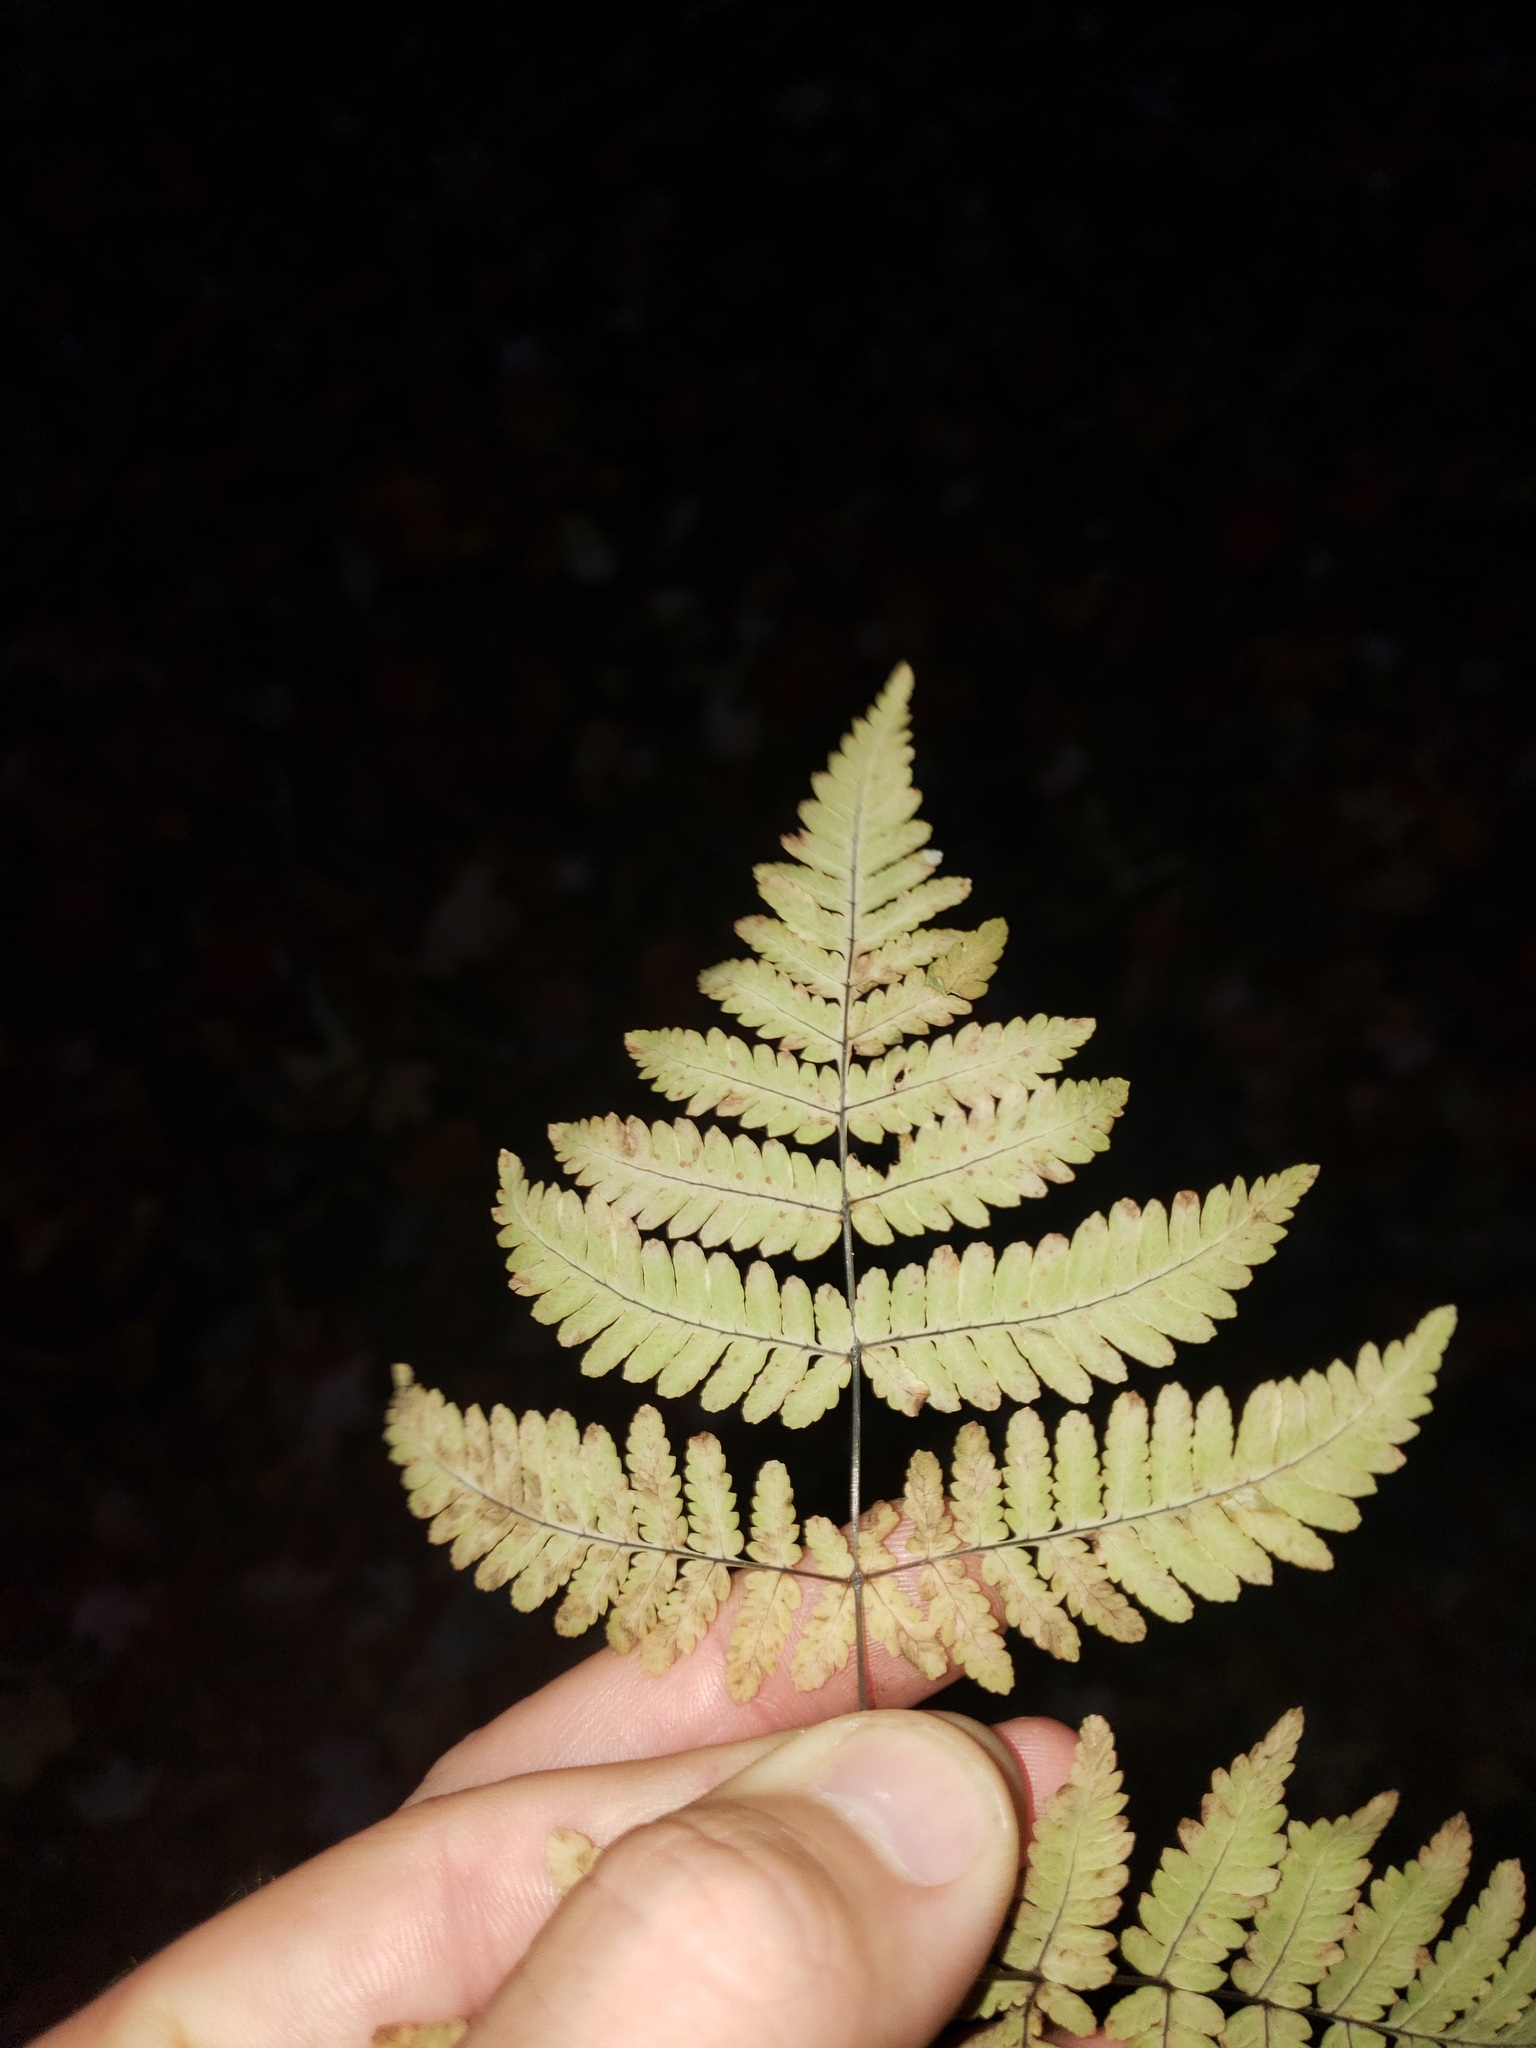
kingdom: Plantae
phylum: Tracheophyta
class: Polypodiopsida
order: Polypodiales
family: Cystopteridaceae
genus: Gymnocarpium
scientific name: Gymnocarpium dryopteris
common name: Oak fern
